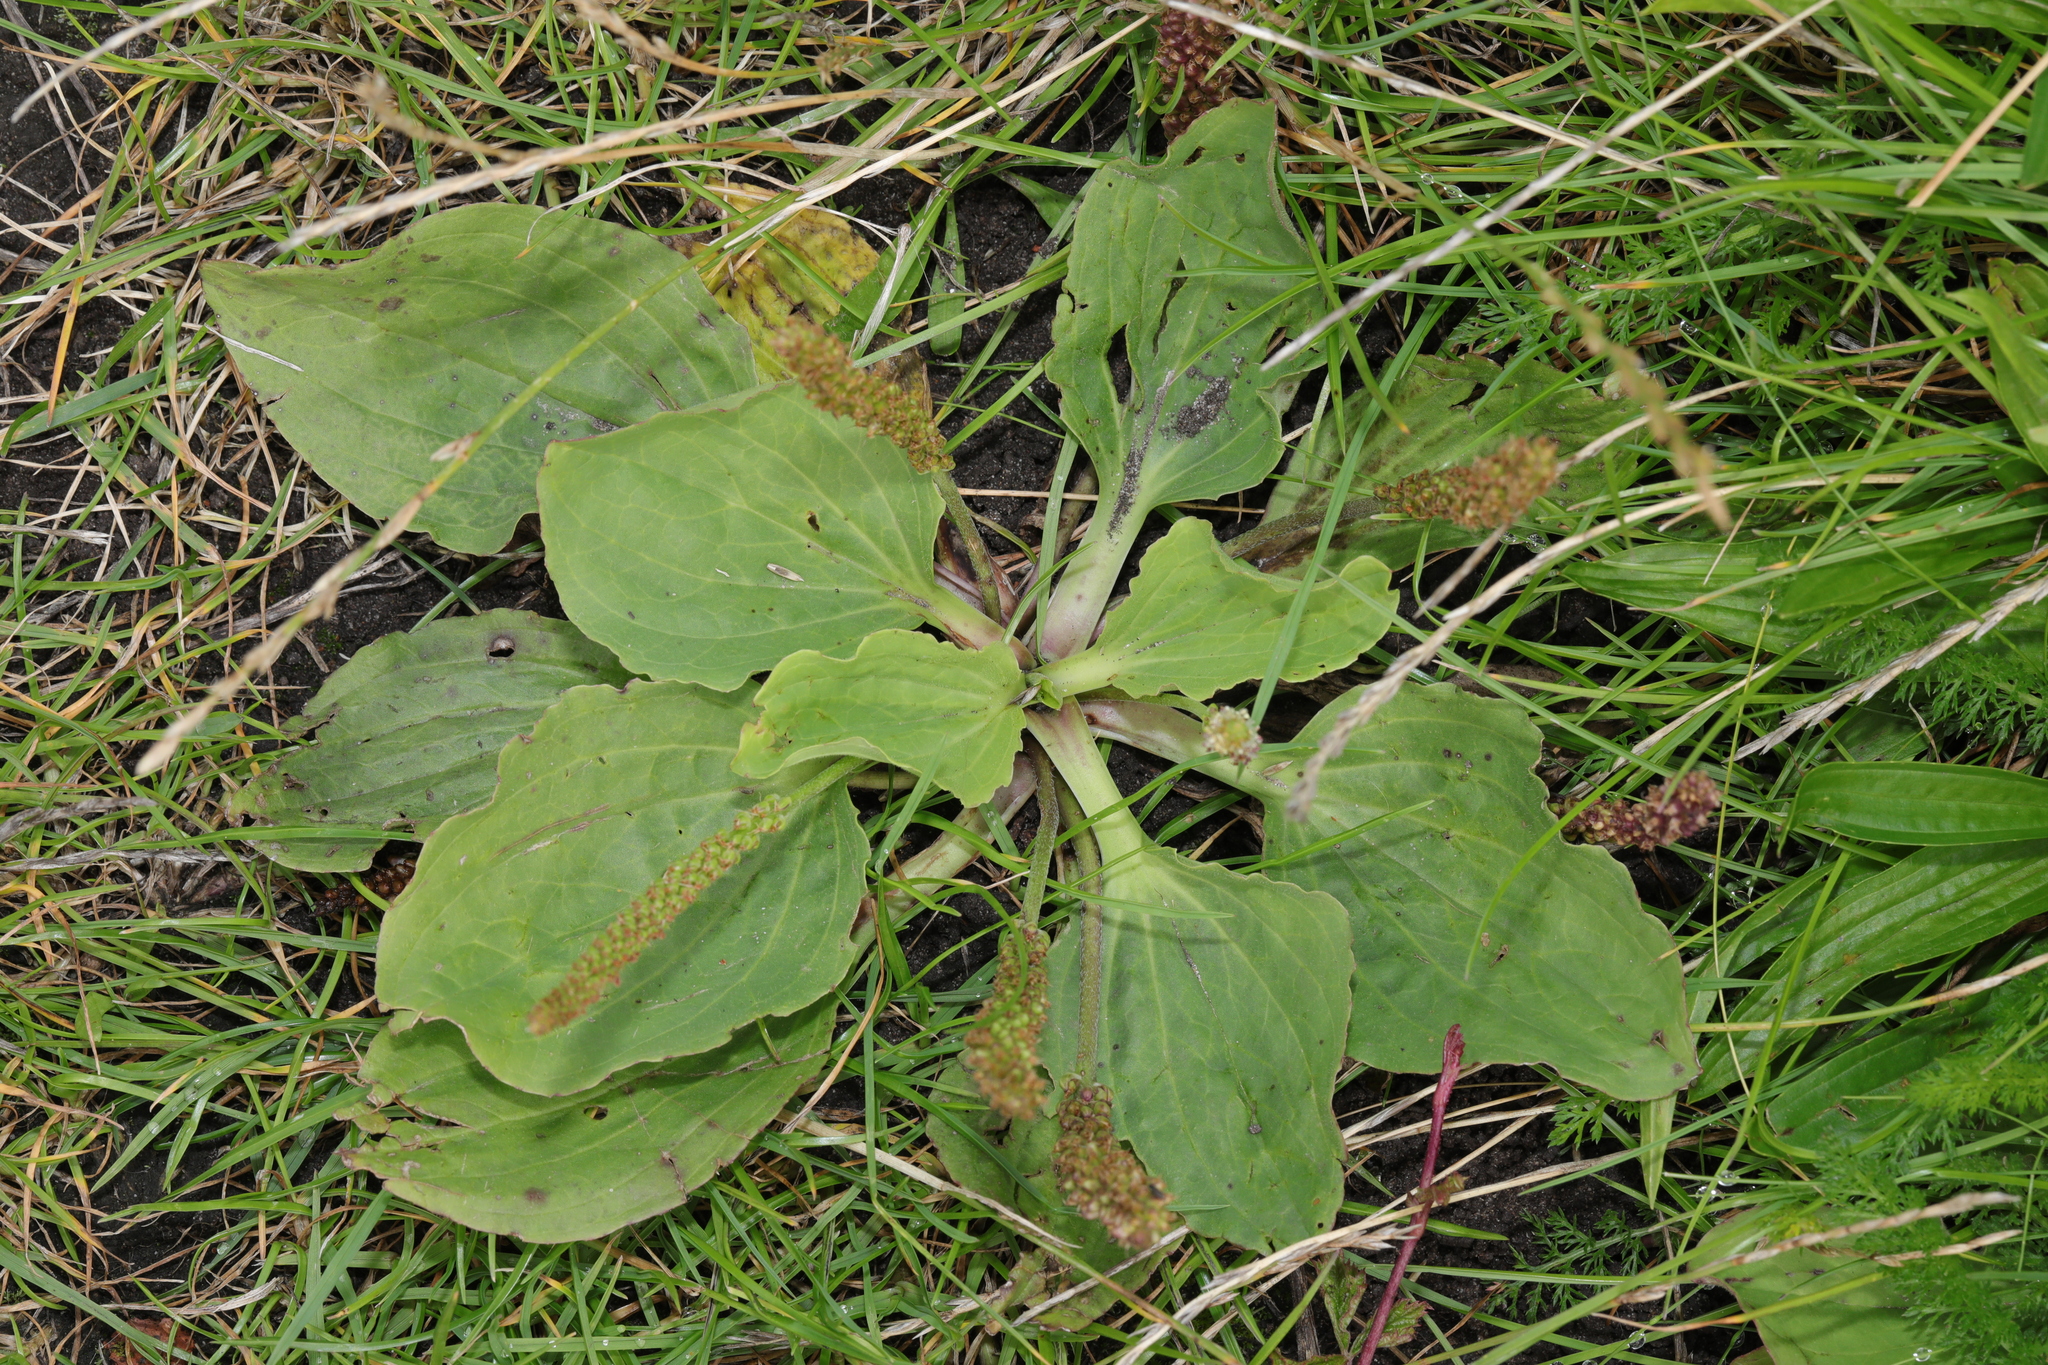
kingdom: Plantae
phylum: Tracheophyta
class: Magnoliopsida
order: Lamiales
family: Plantaginaceae
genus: Plantago
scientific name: Plantago major
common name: Common plantain
